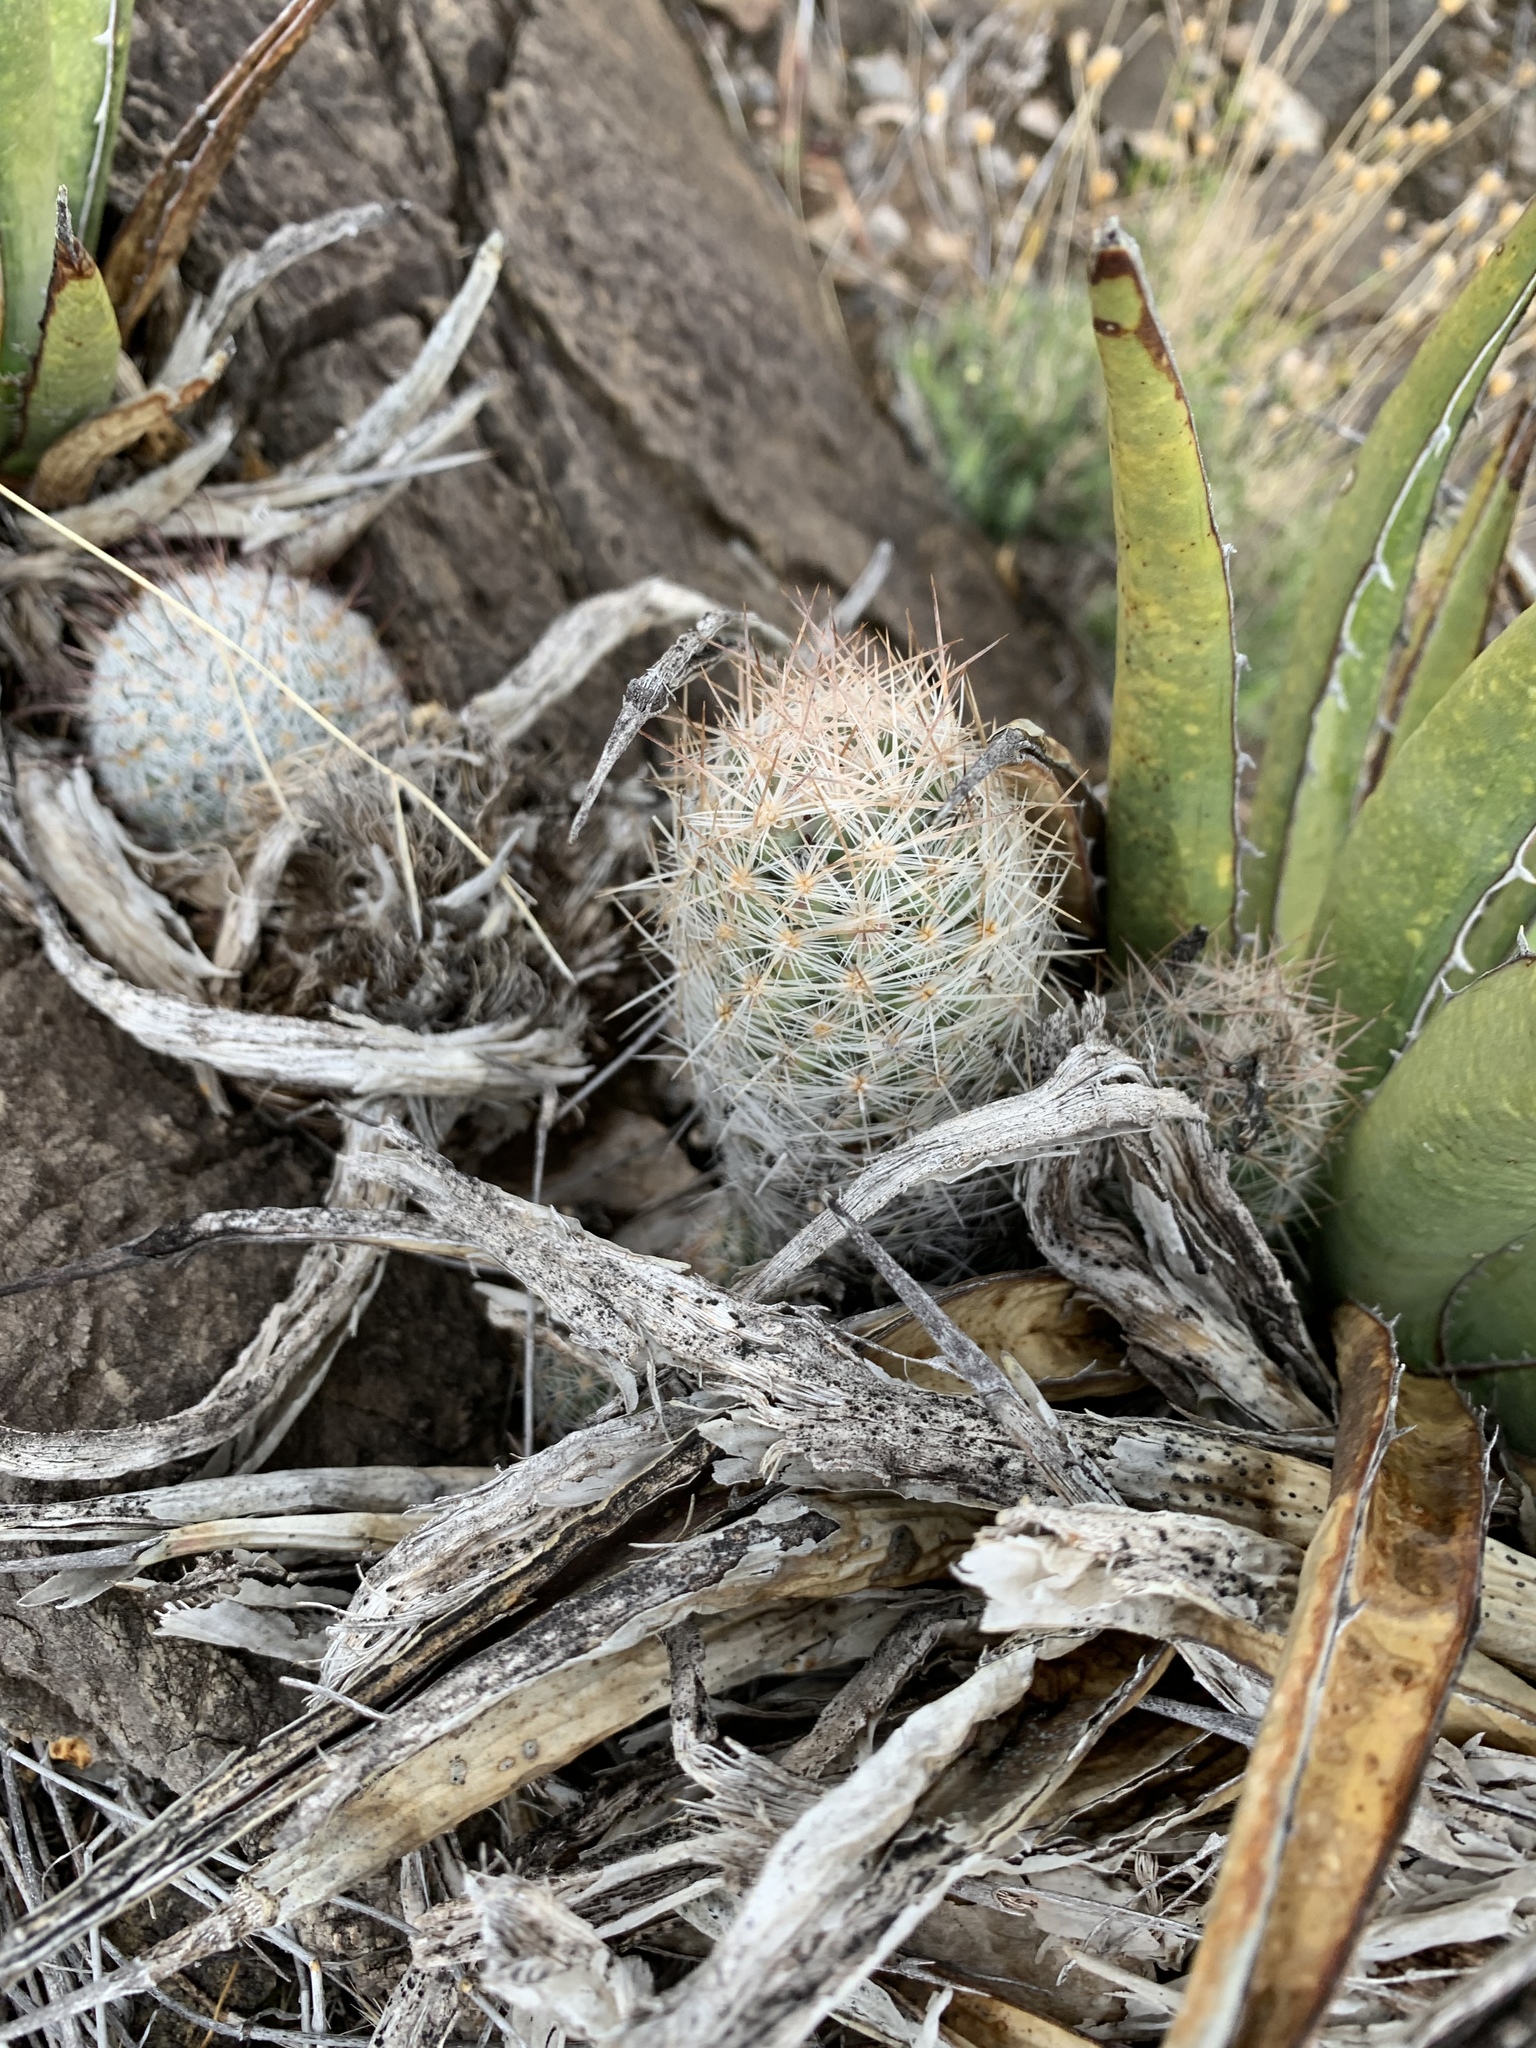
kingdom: Plantae
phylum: Tracheophyta
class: Magnoliopsida
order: Caryophyllales
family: Cactaceae
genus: Pelecyphora
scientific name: Pelecyphora tuberculosa
